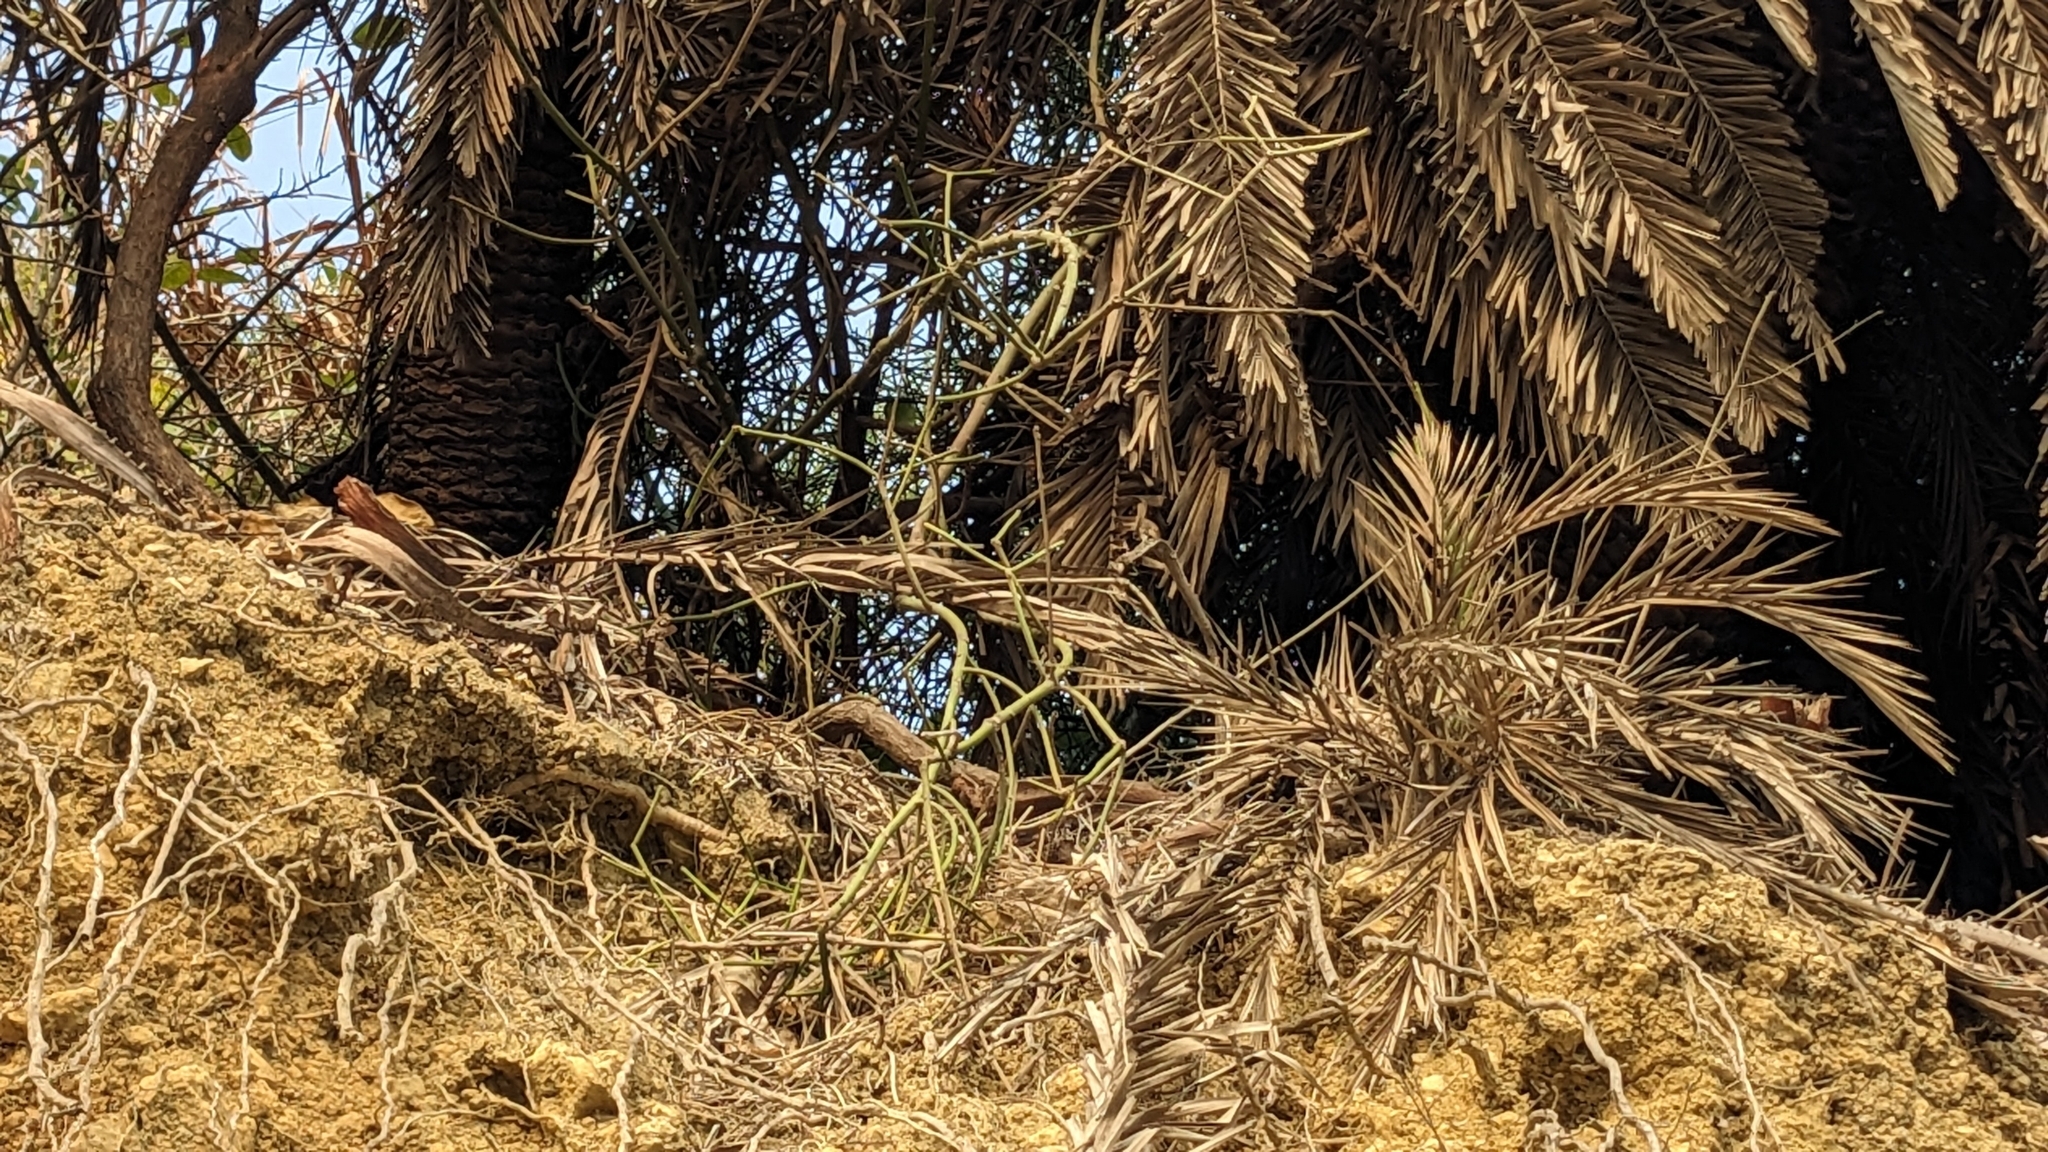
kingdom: Plantae
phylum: Tracheophyta
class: Magnoliopsida
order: Malpighiales
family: Euphorbiaceae
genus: Euphorbia
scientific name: Euphorbia tirucalli
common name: Indiantree spurge
